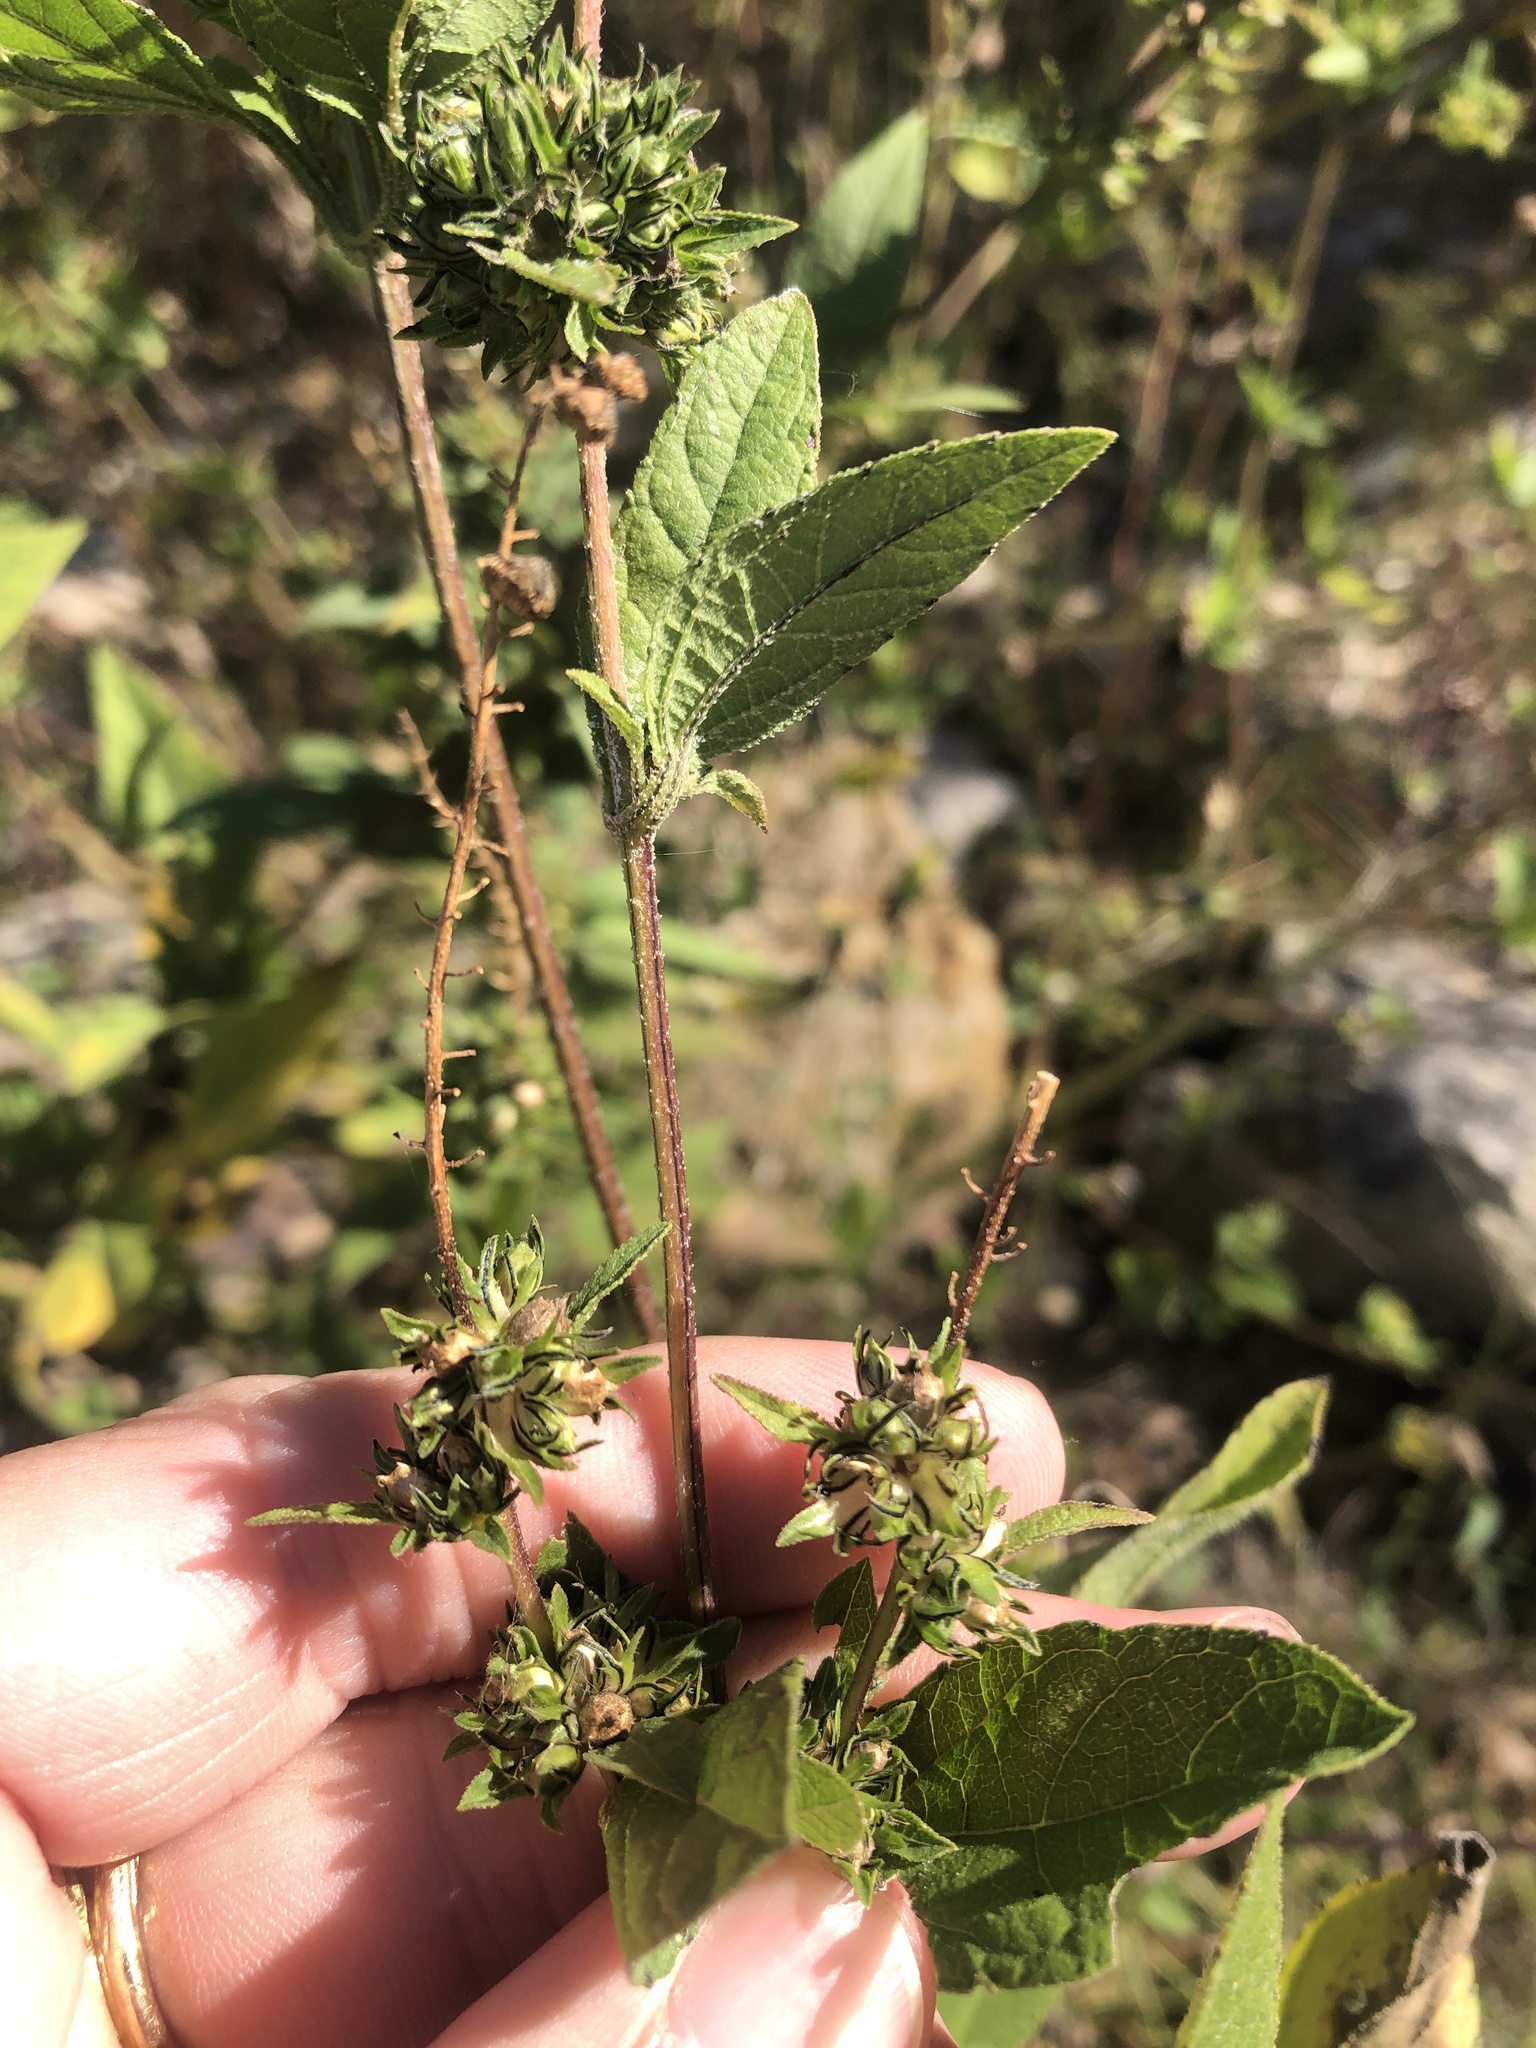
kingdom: Plantae
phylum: Tracheophyta
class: Magnoliopsida
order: Asterales
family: Asteraceae
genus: Ambrosia
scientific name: Ambrosia trifida
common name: Giant ragweed
